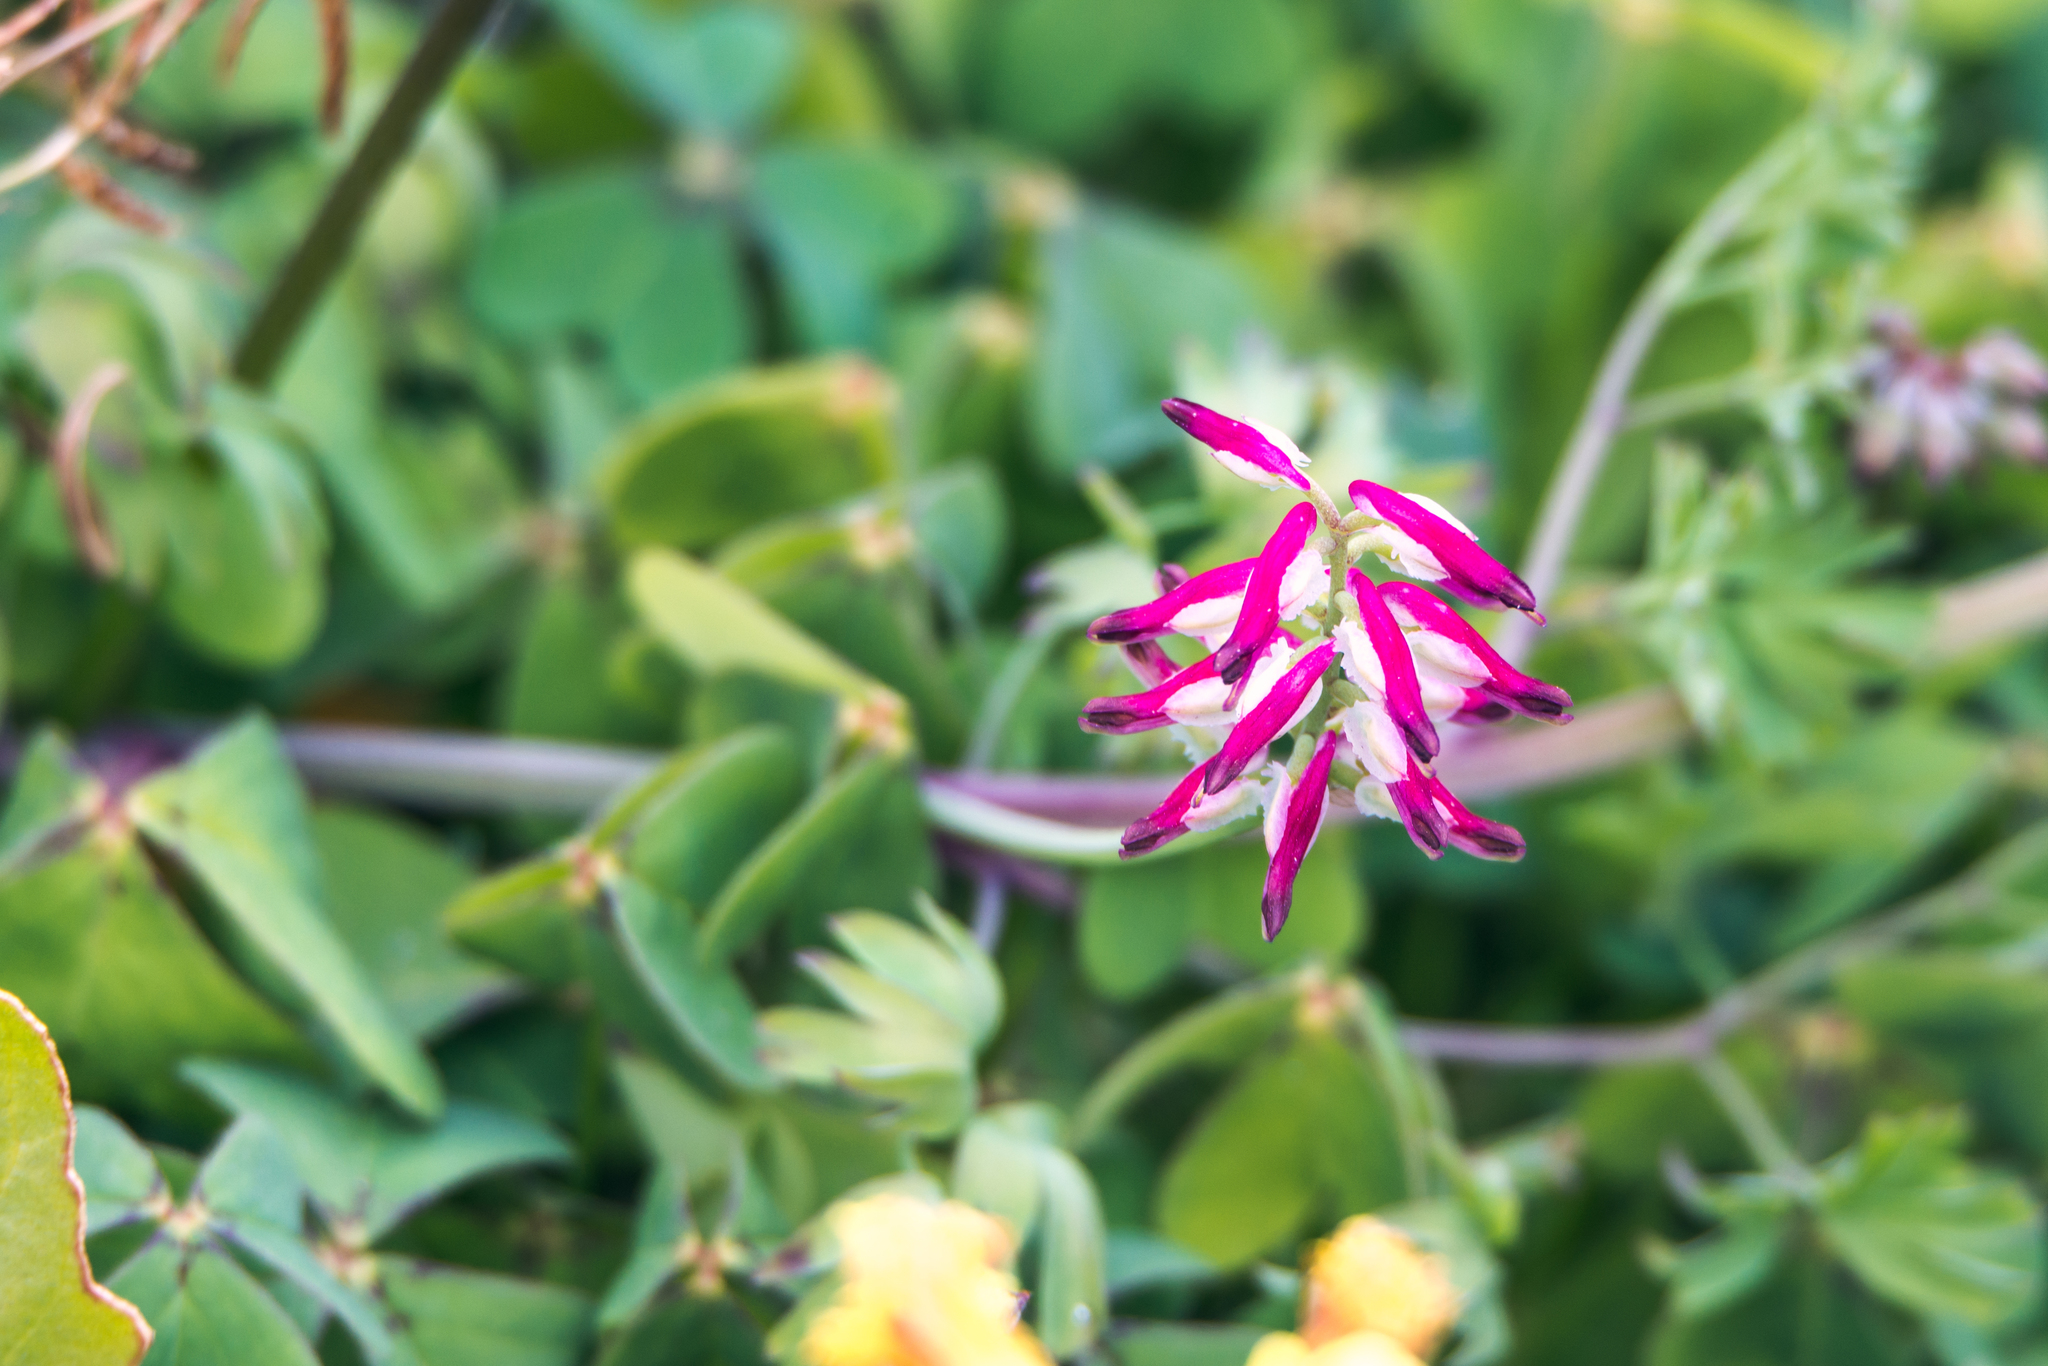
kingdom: Plantae
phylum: Tracheophyta
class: Magnoliopsida
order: Ranunculales
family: Papaveraceae
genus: Fumaria
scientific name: Fumaria capreolata
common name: White ramping-fumitory
